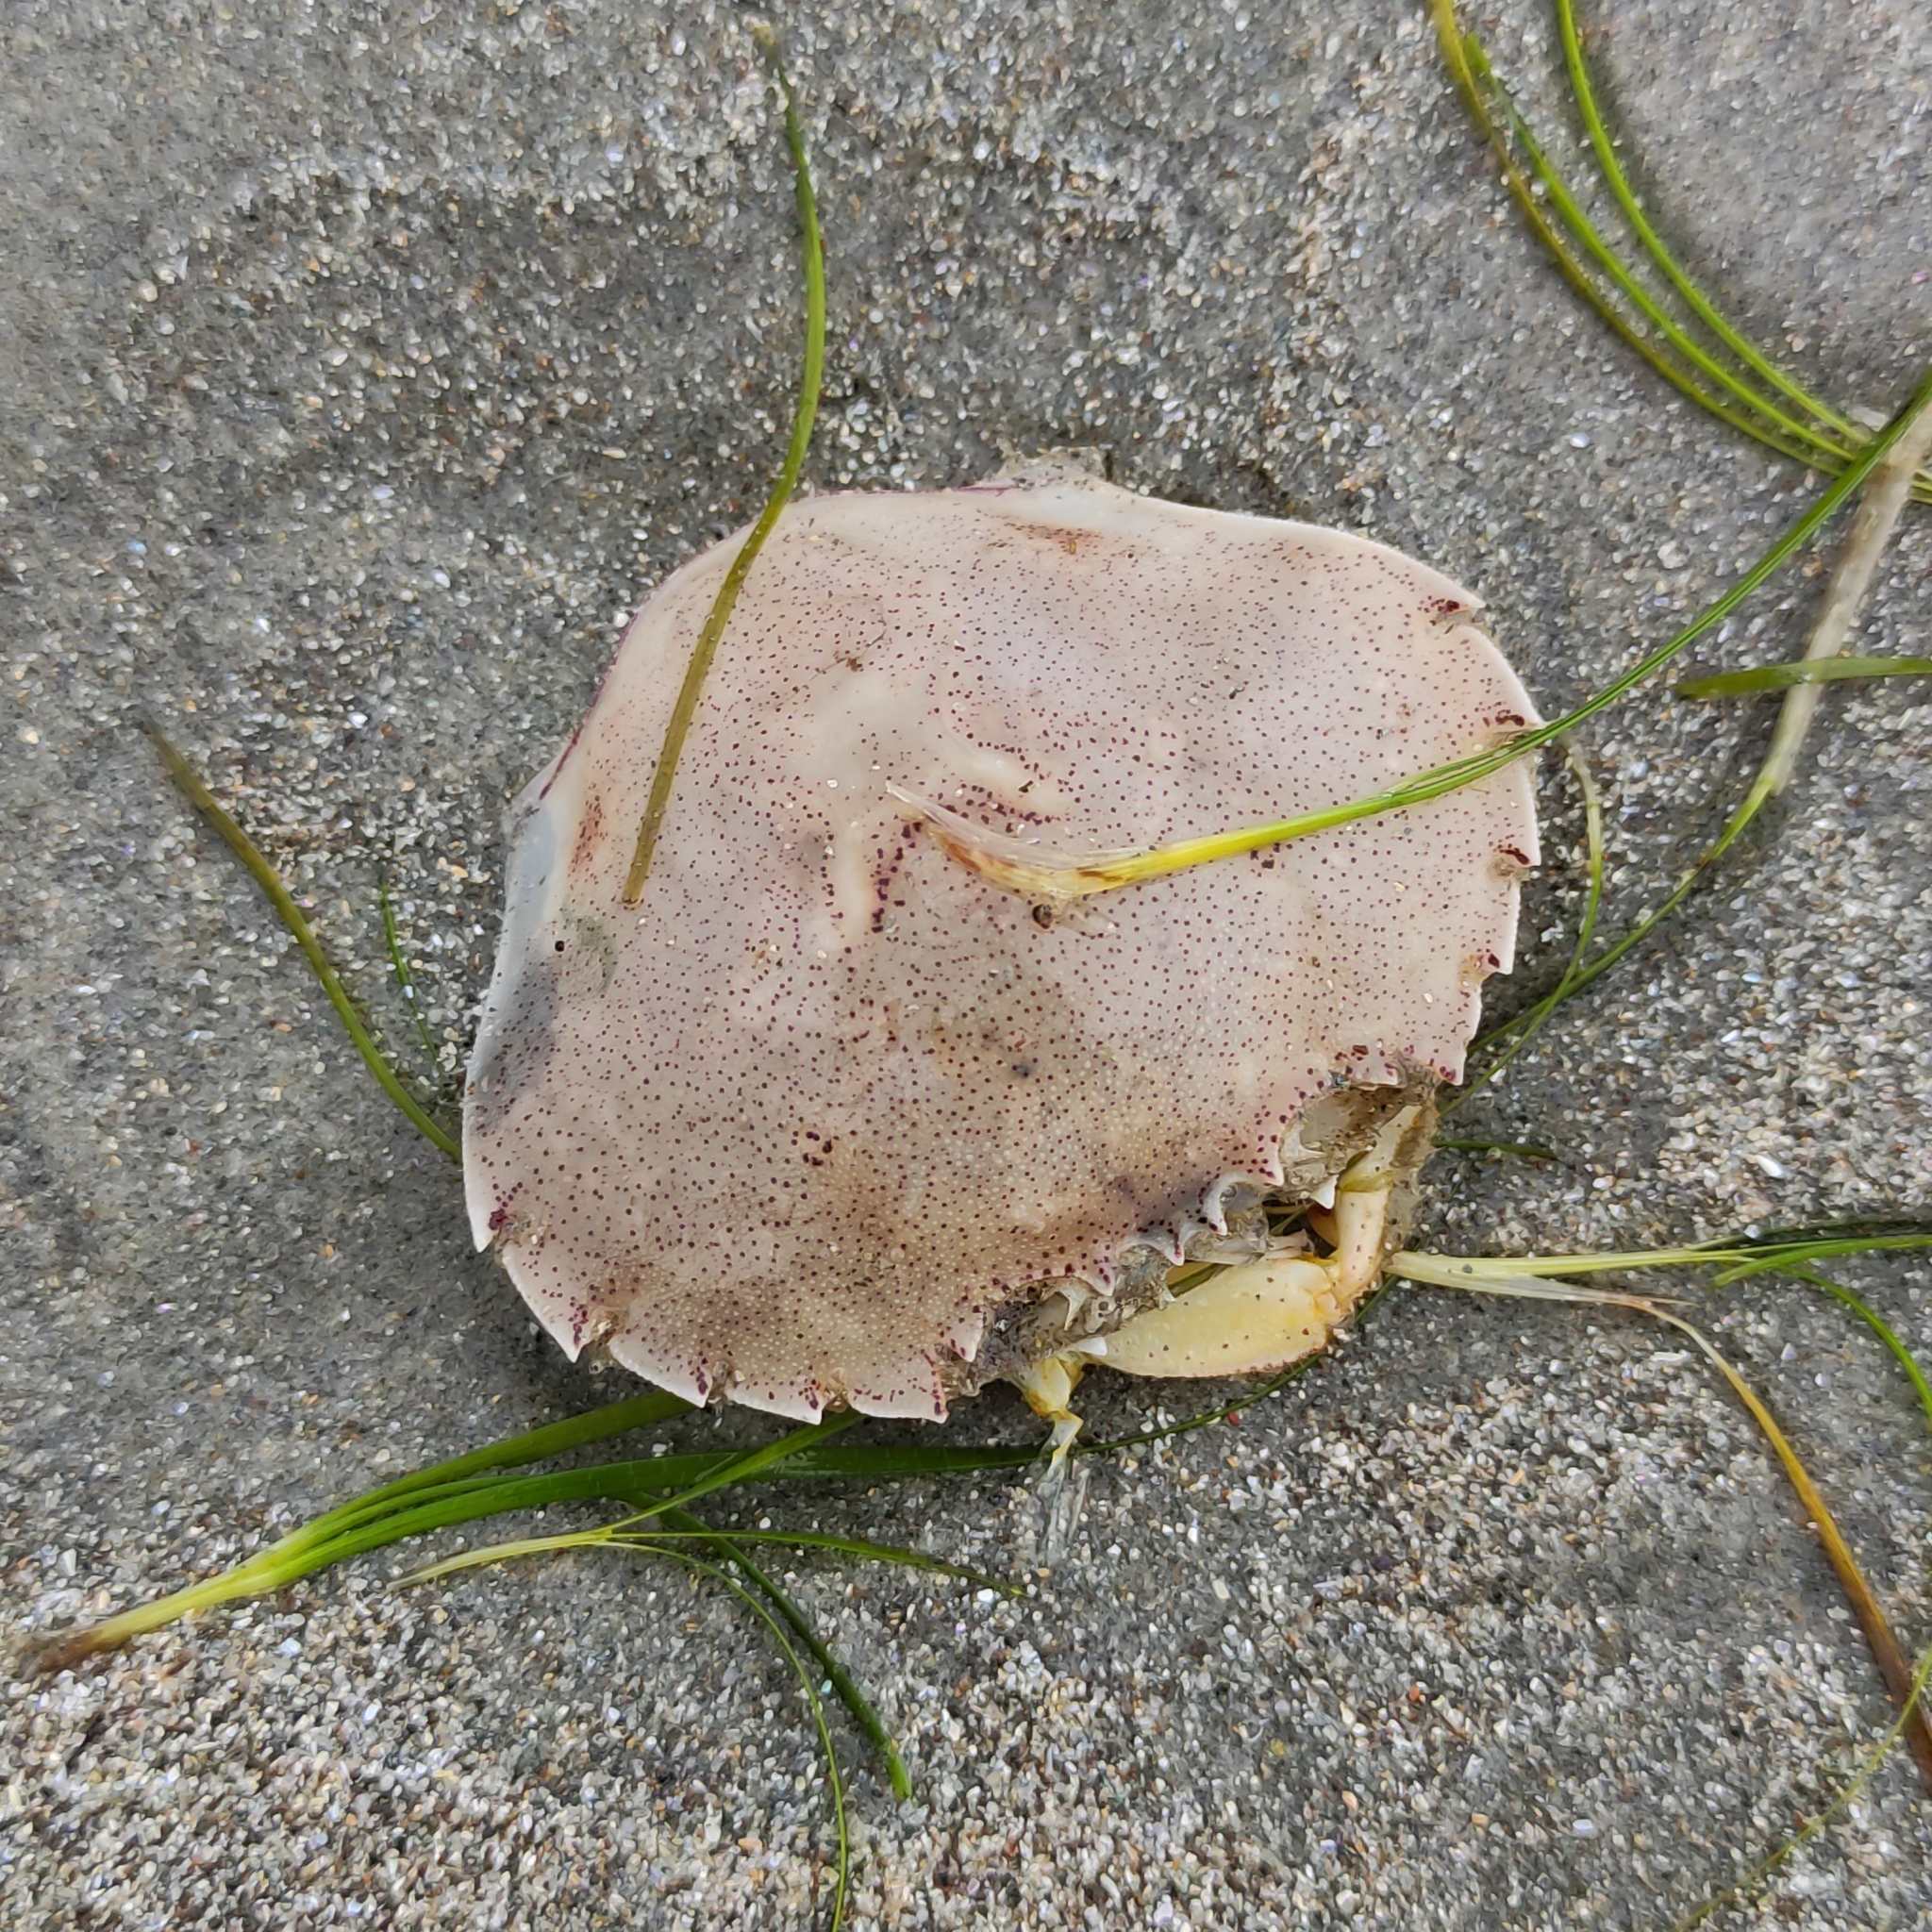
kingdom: Animalia
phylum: Arthropoda
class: Malacostraca
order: Decapoda
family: Ovalipidae
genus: Ovalipes
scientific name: Ovalipes catharus
